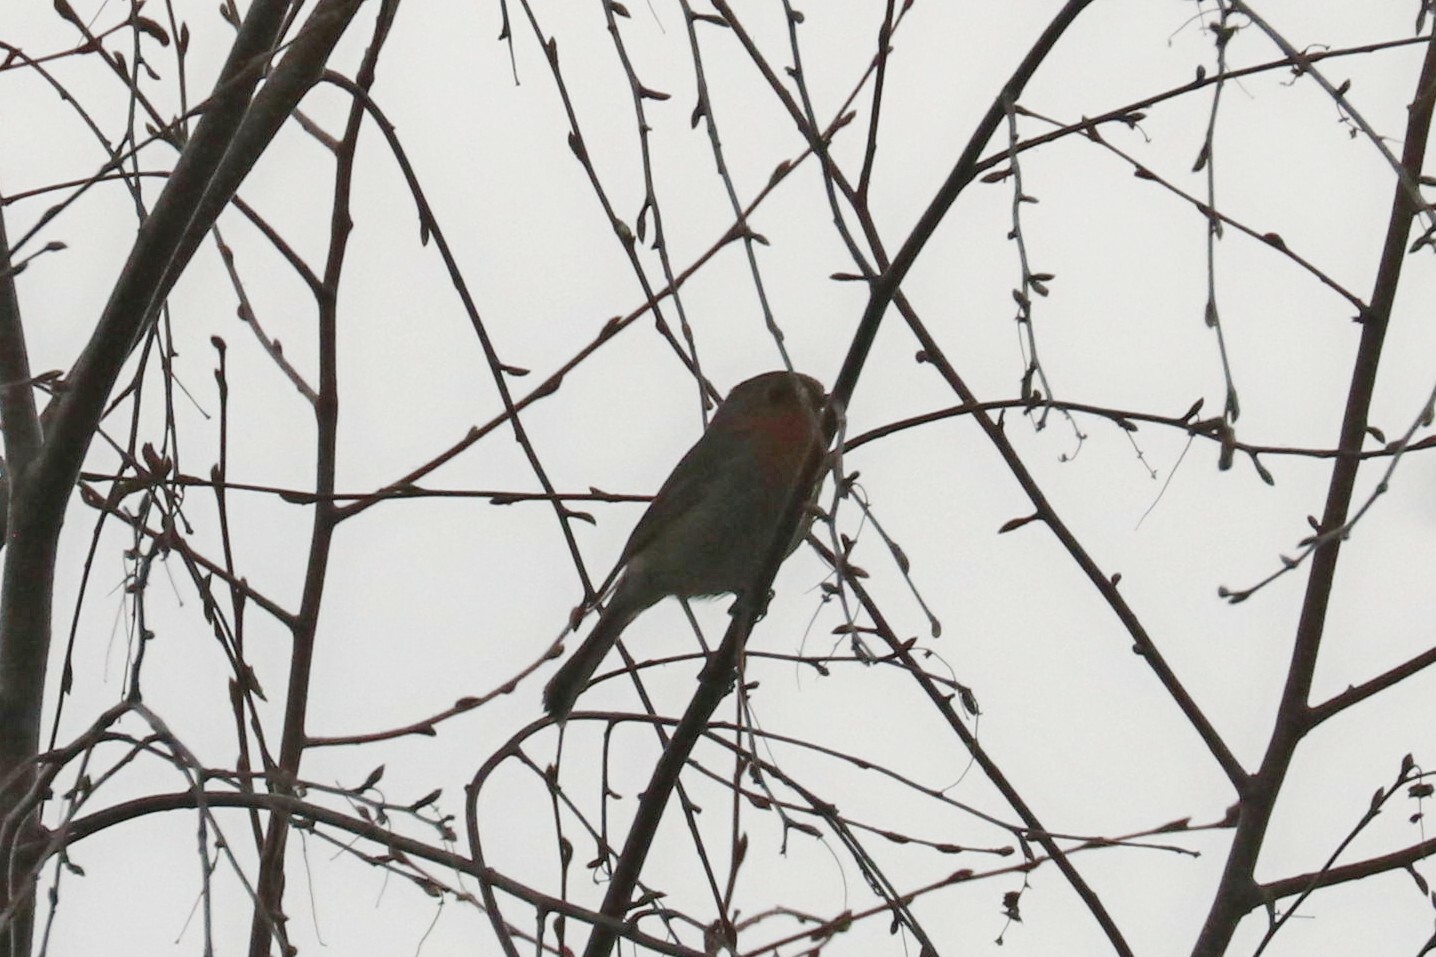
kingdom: Animalia
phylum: Chordata
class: Aves
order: Passeriformes
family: Muscicapidae
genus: Erithacus
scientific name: Erithacus rubecula
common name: European robin
